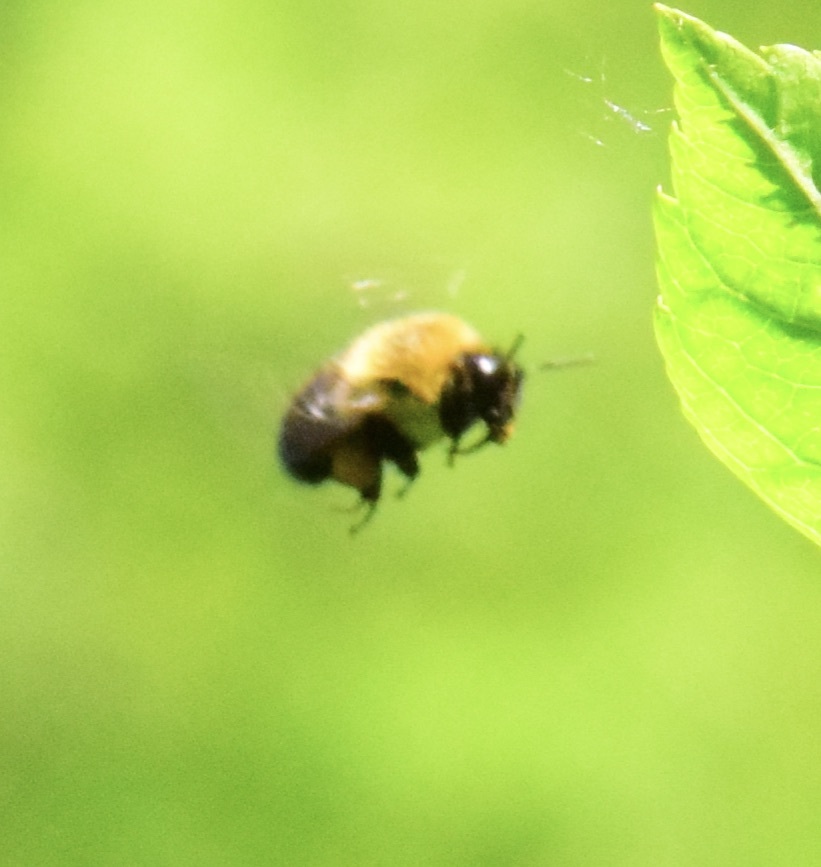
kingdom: Animalia
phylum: Arthropoda
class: Insecta
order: Hymenoptera
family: Apidae
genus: Bombus
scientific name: Bombus impatiens
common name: Common eastern bumble bee
